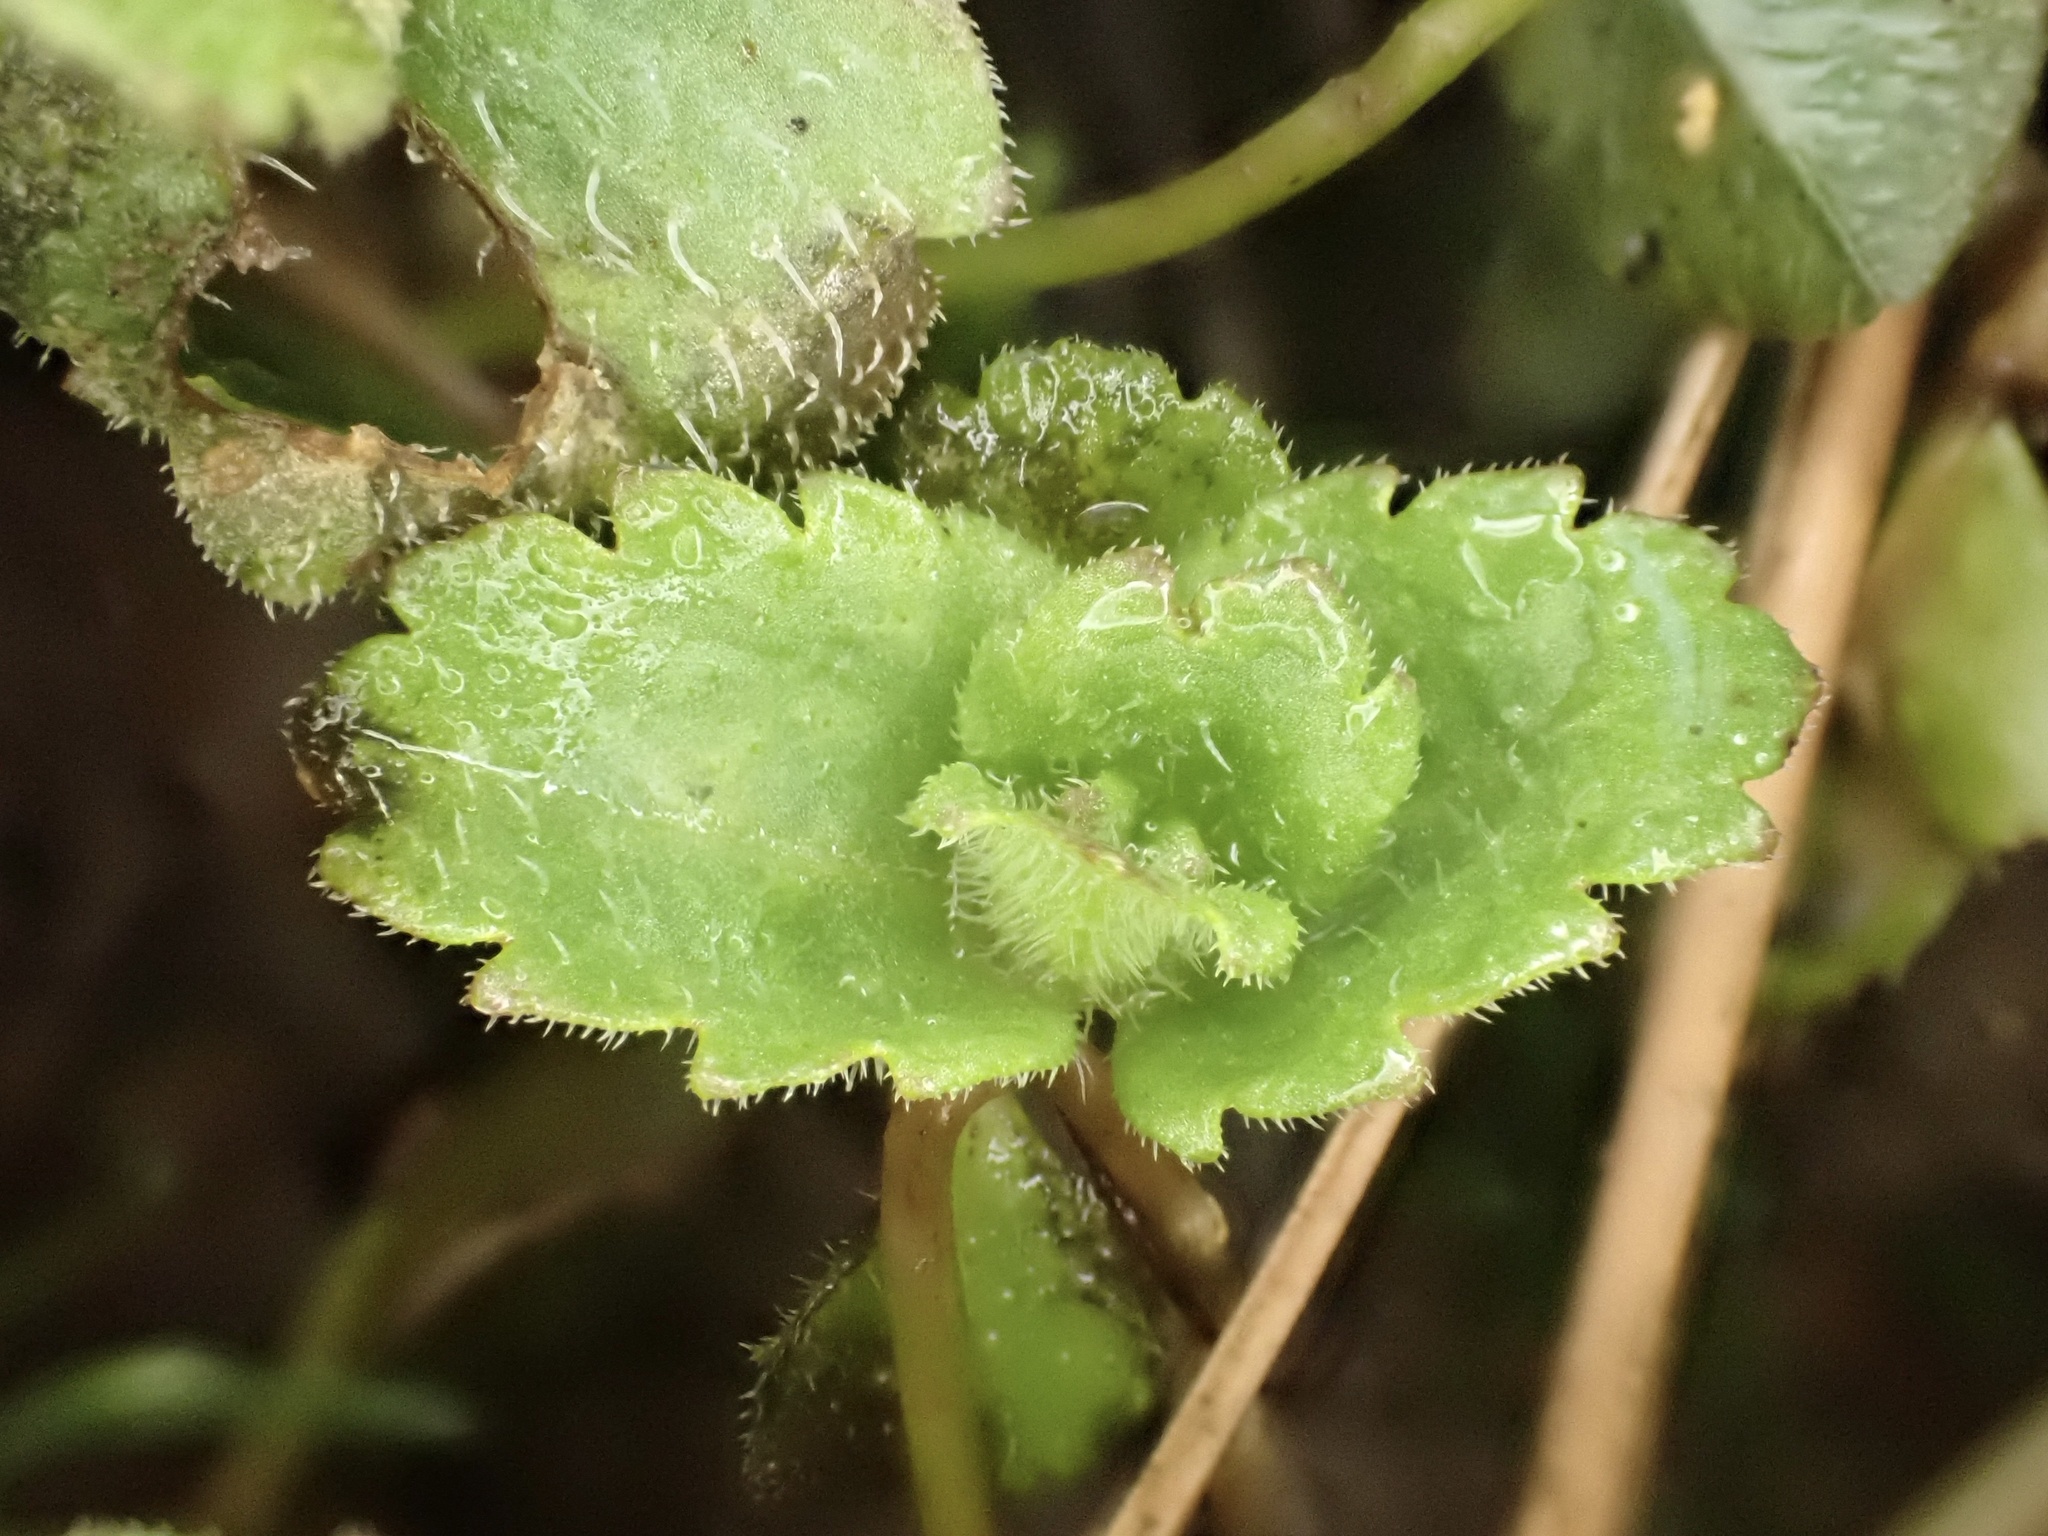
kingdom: Plantae
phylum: Tracheophyta
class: Magnoliopsida
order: Lamiales
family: Plantaginaceae
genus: Veronica
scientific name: Veronica persica
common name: Common field-speedwell
